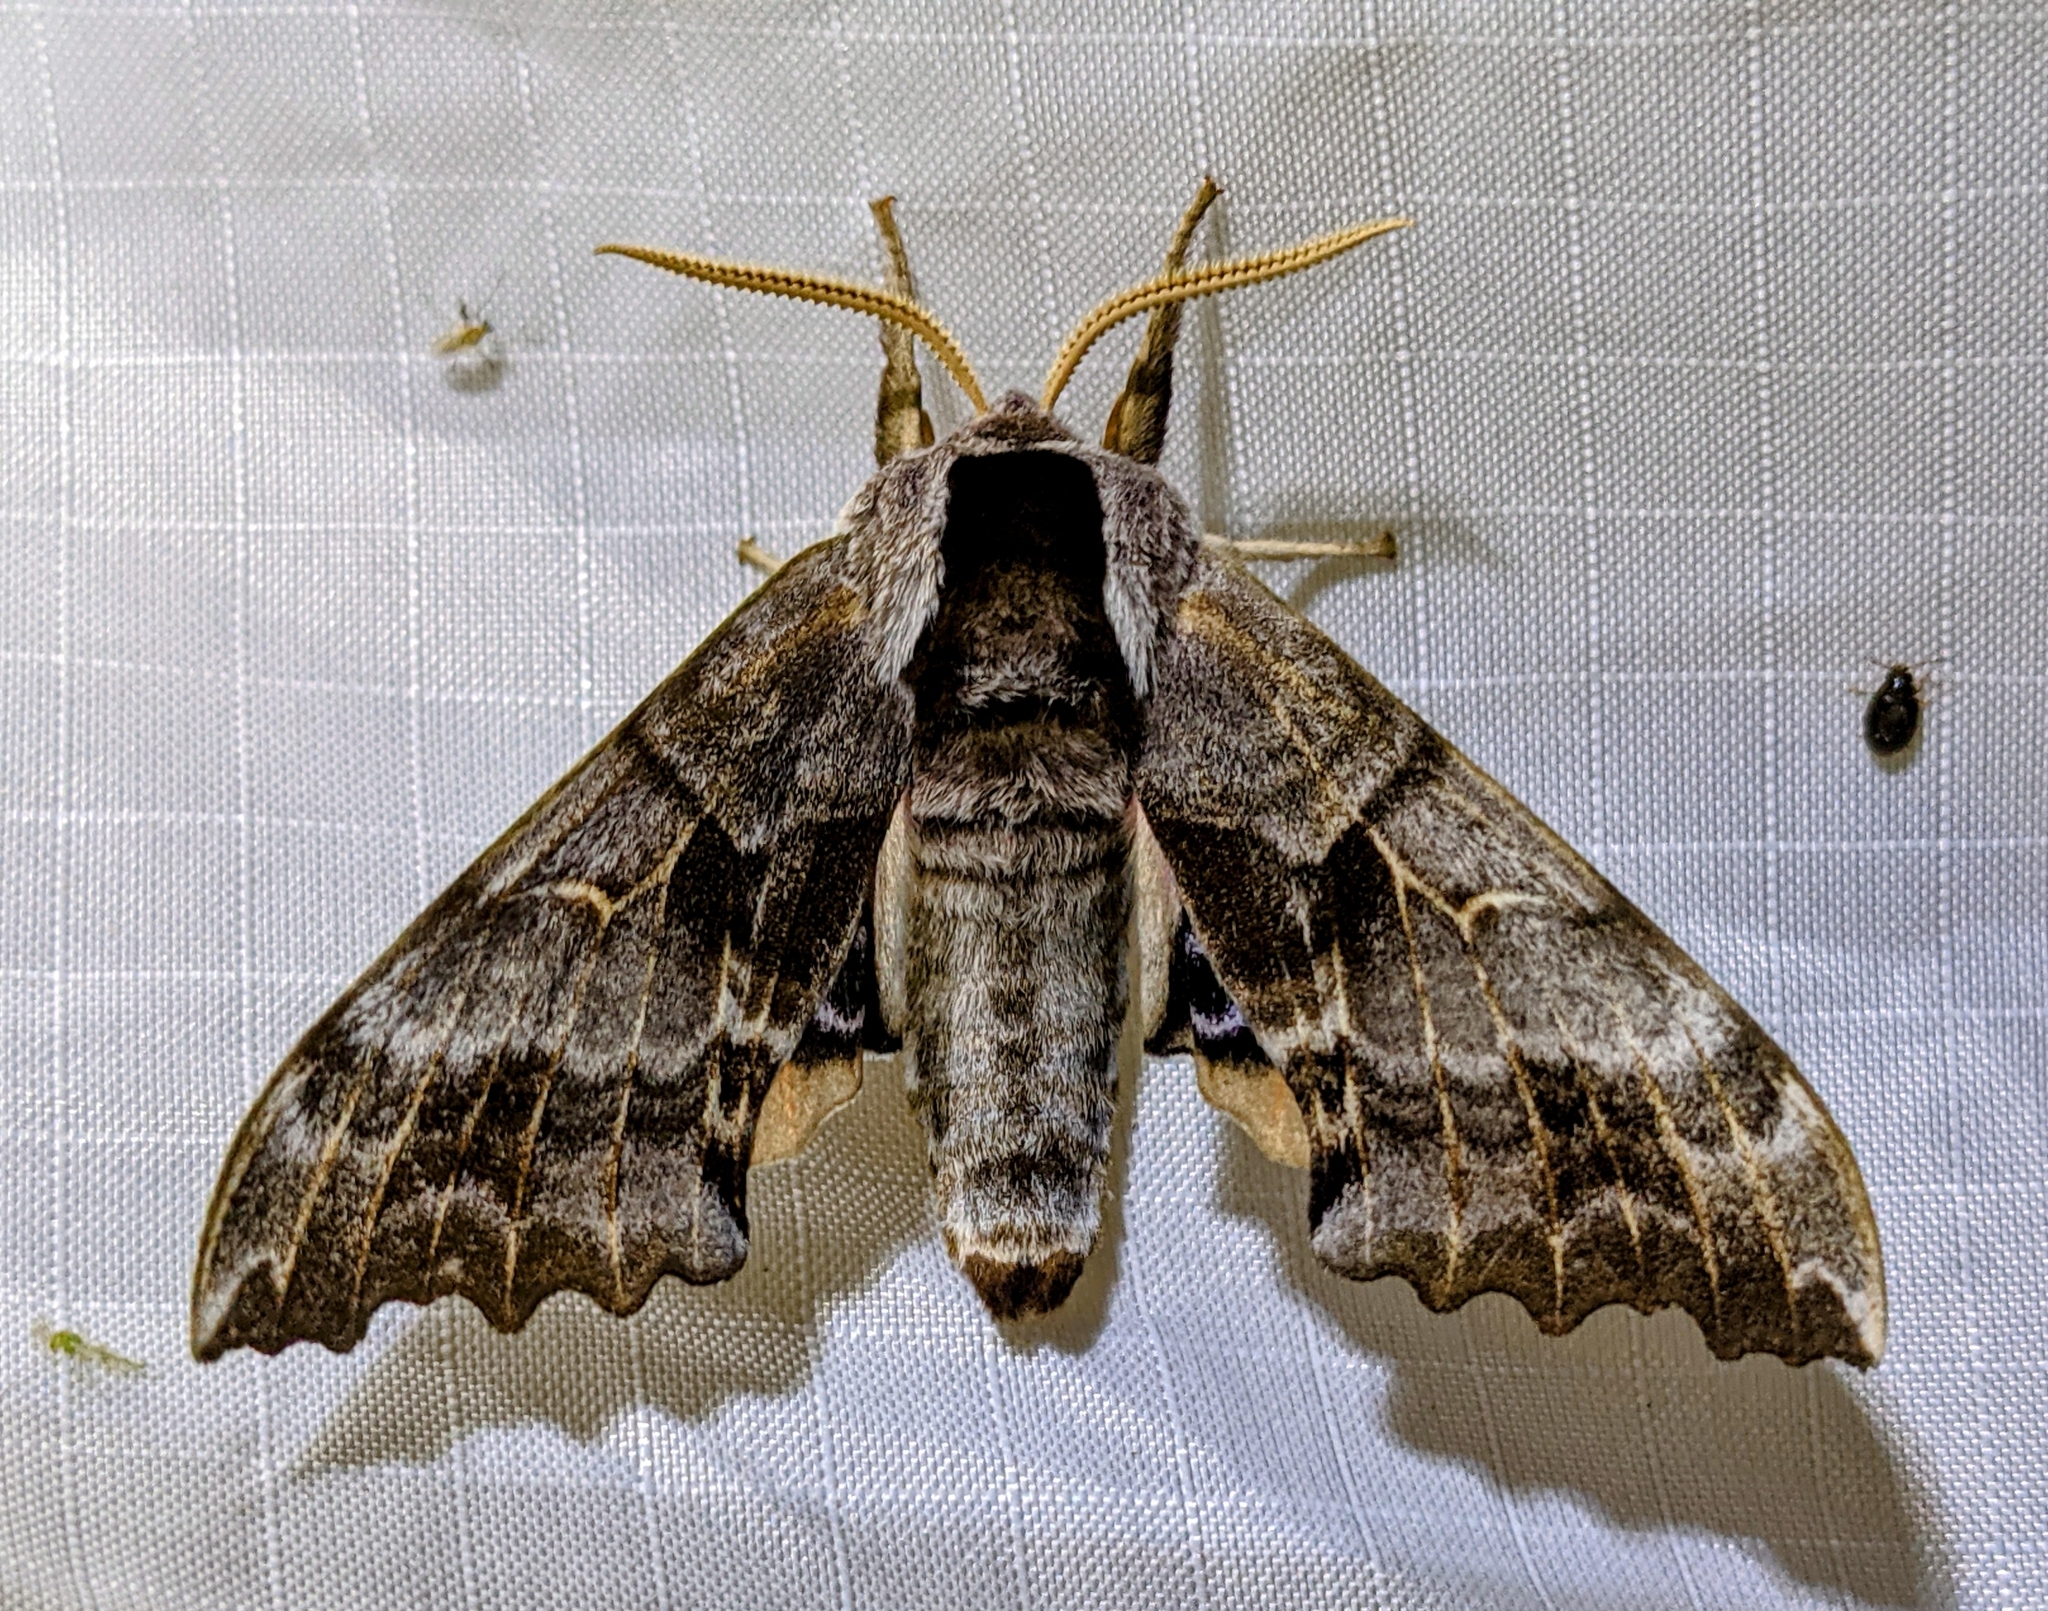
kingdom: Animalia
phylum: Arthropoda
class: Insecta
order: Lepidoptera
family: Sphingidae
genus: Smerinthus
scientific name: Smerinthus cerisyi
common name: Cerisy's sphinx moth
